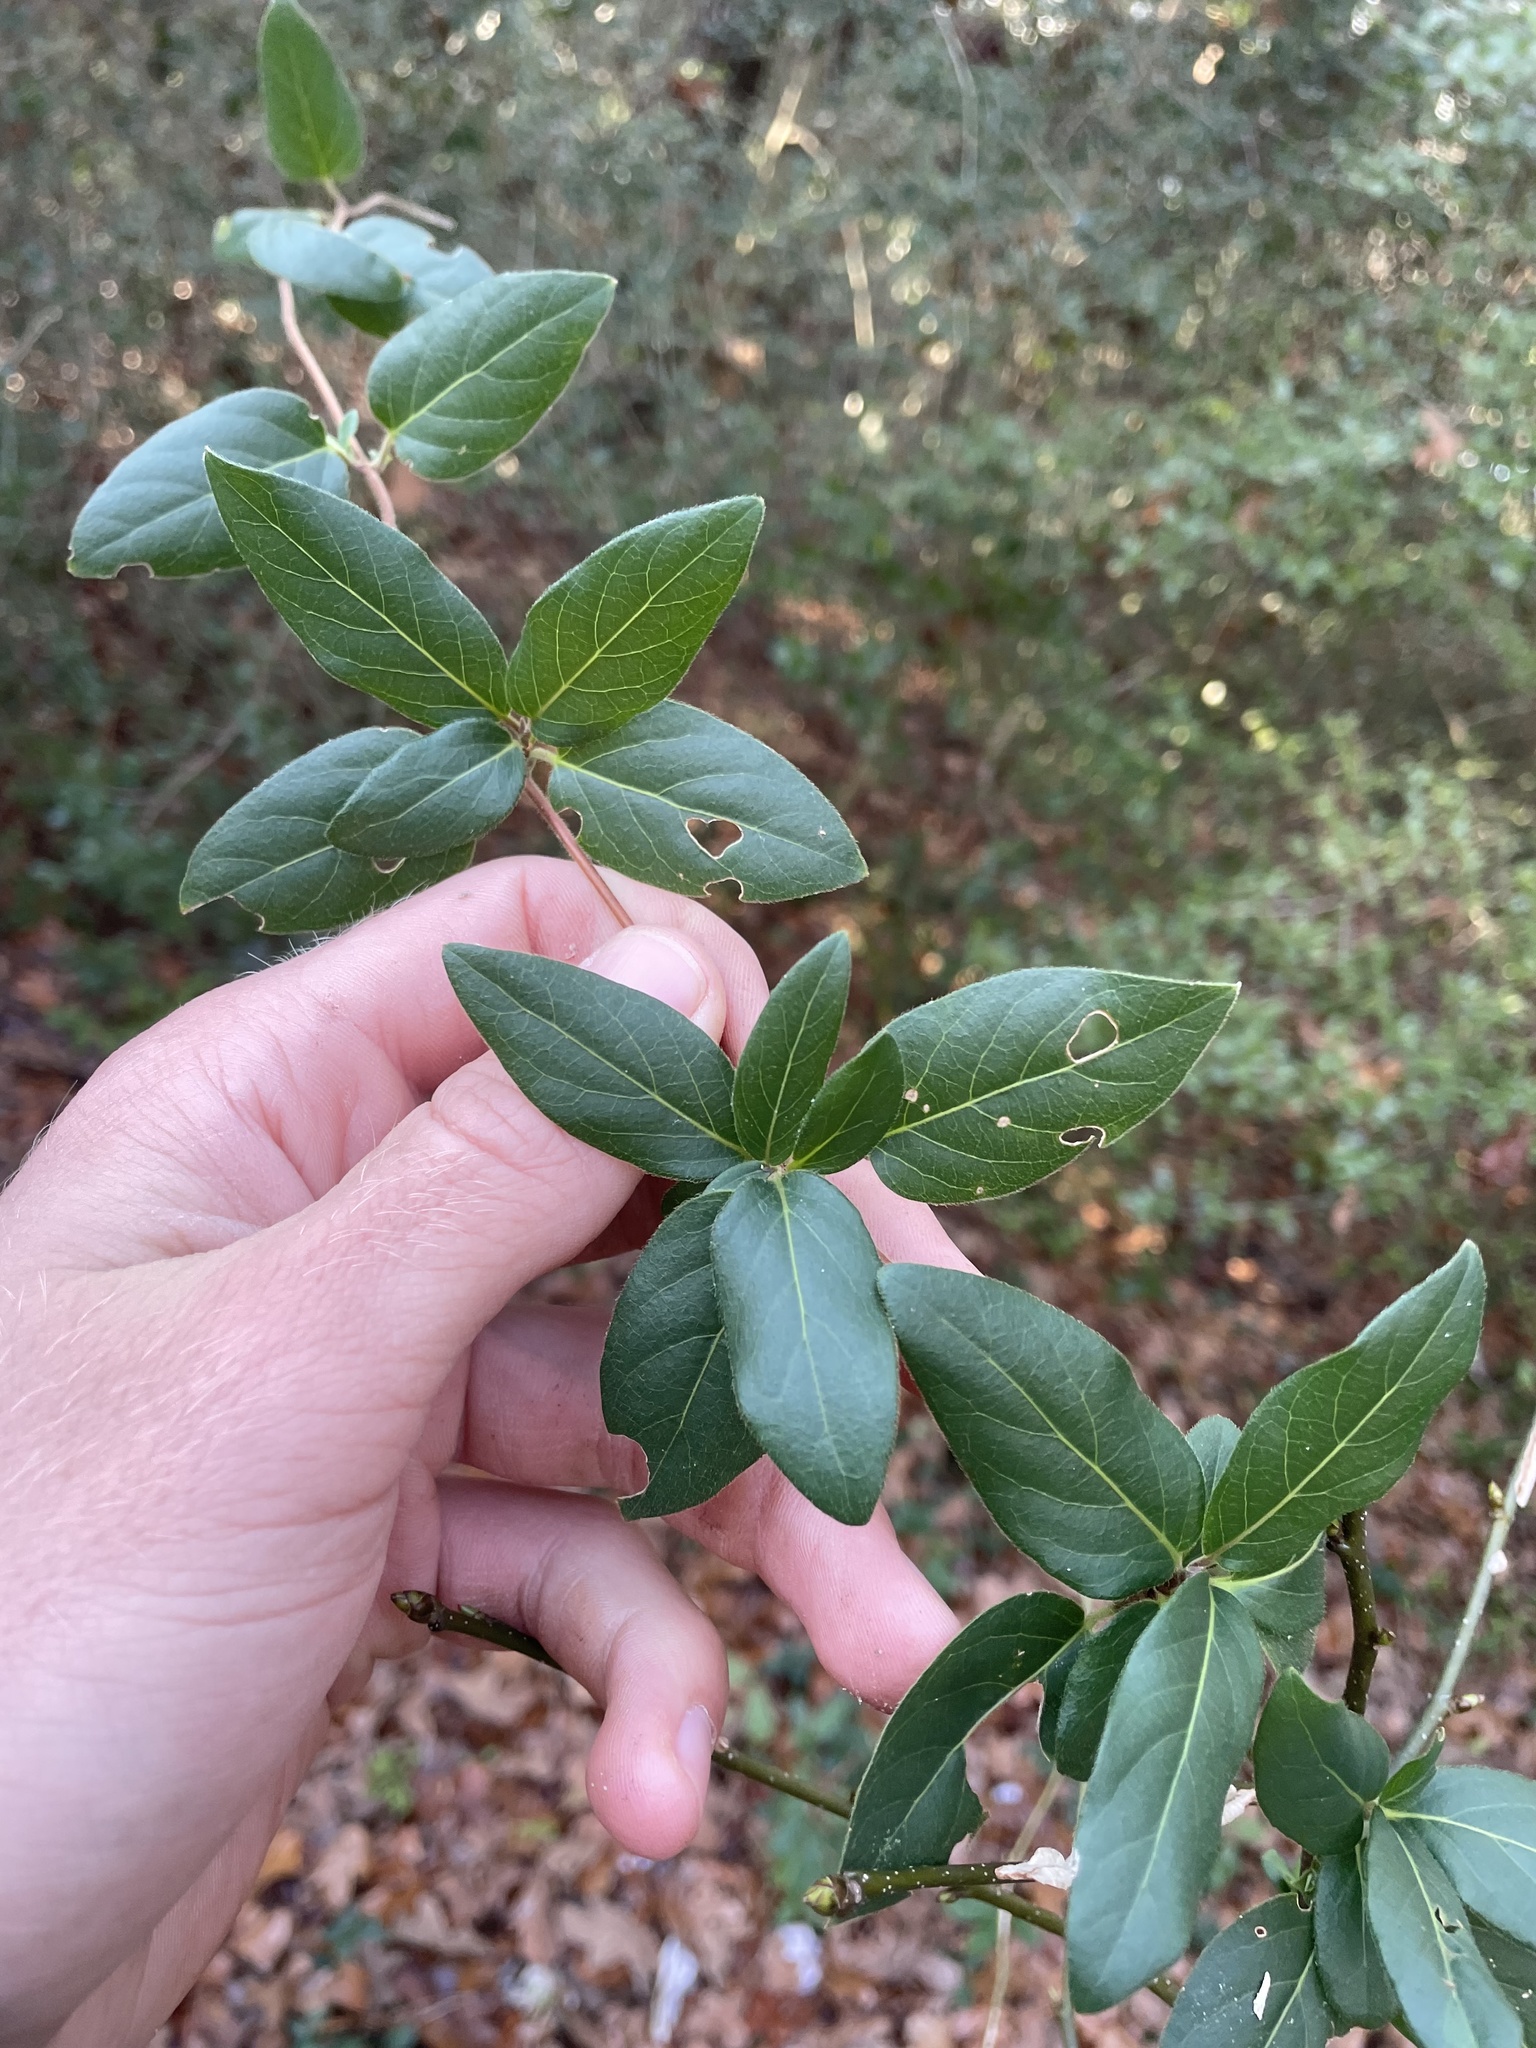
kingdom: Plantae
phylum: Tracheophyta
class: Magnoliopsida
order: Dipsacales
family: Caprifoliaceae
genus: Lonicera
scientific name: Lonicera japonica
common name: Japanese honeysuckle
